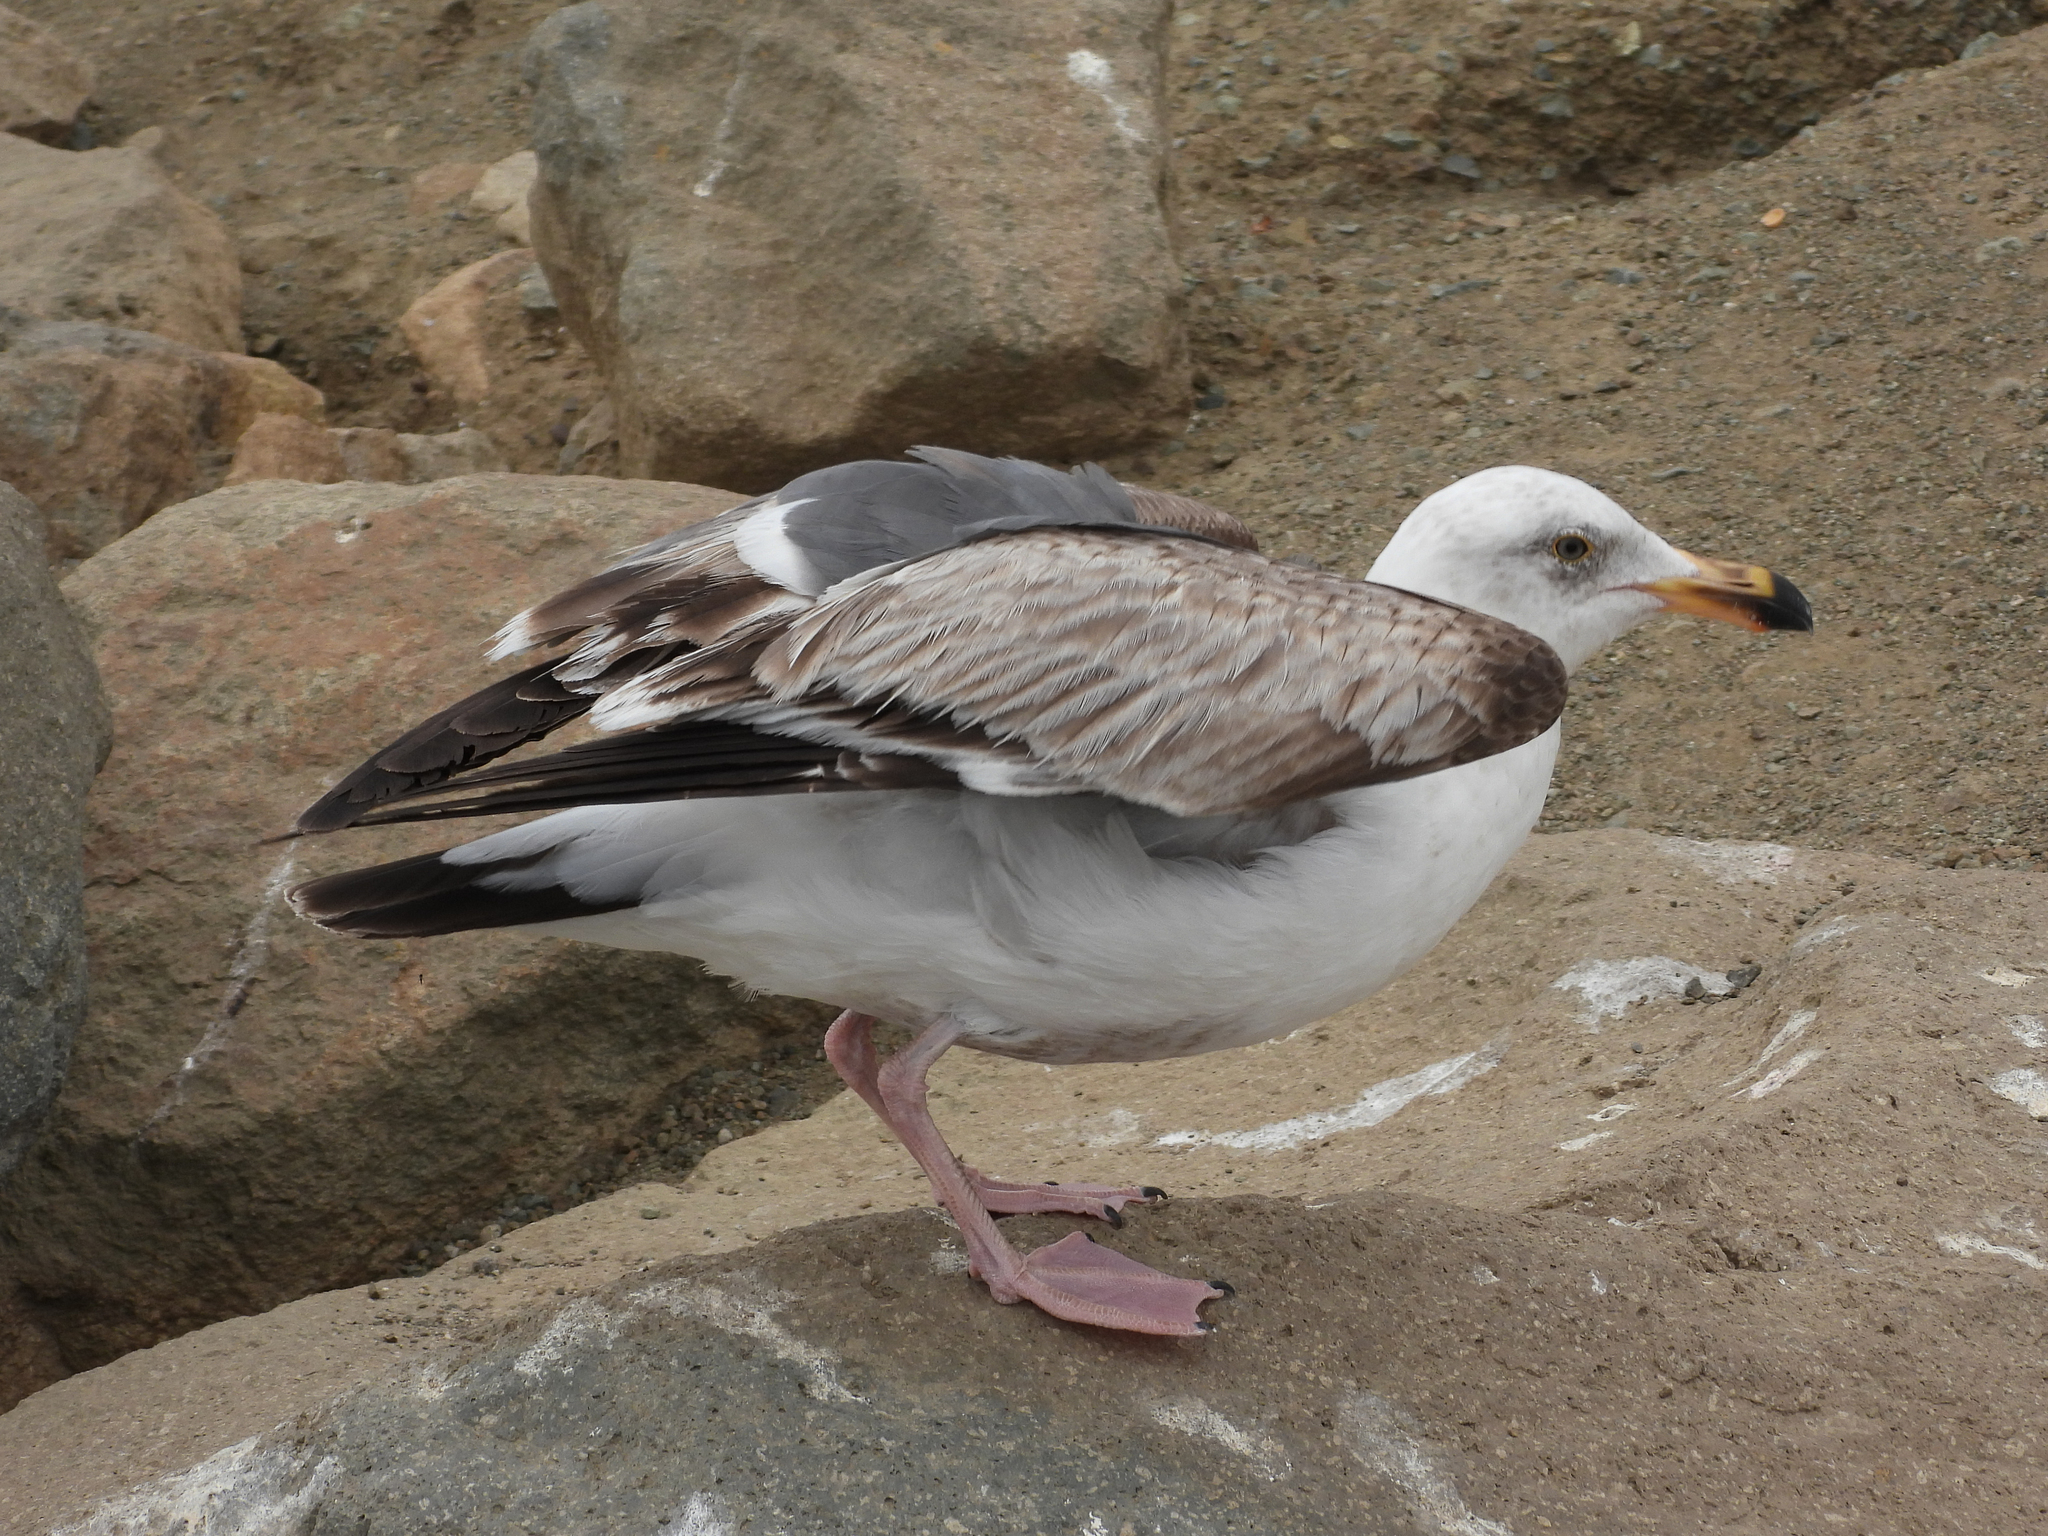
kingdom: Animalia
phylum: Chordata
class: Aves
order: Charadriiformes
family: Laridae
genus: Larus
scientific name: Larus occidentalis
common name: Western gull
